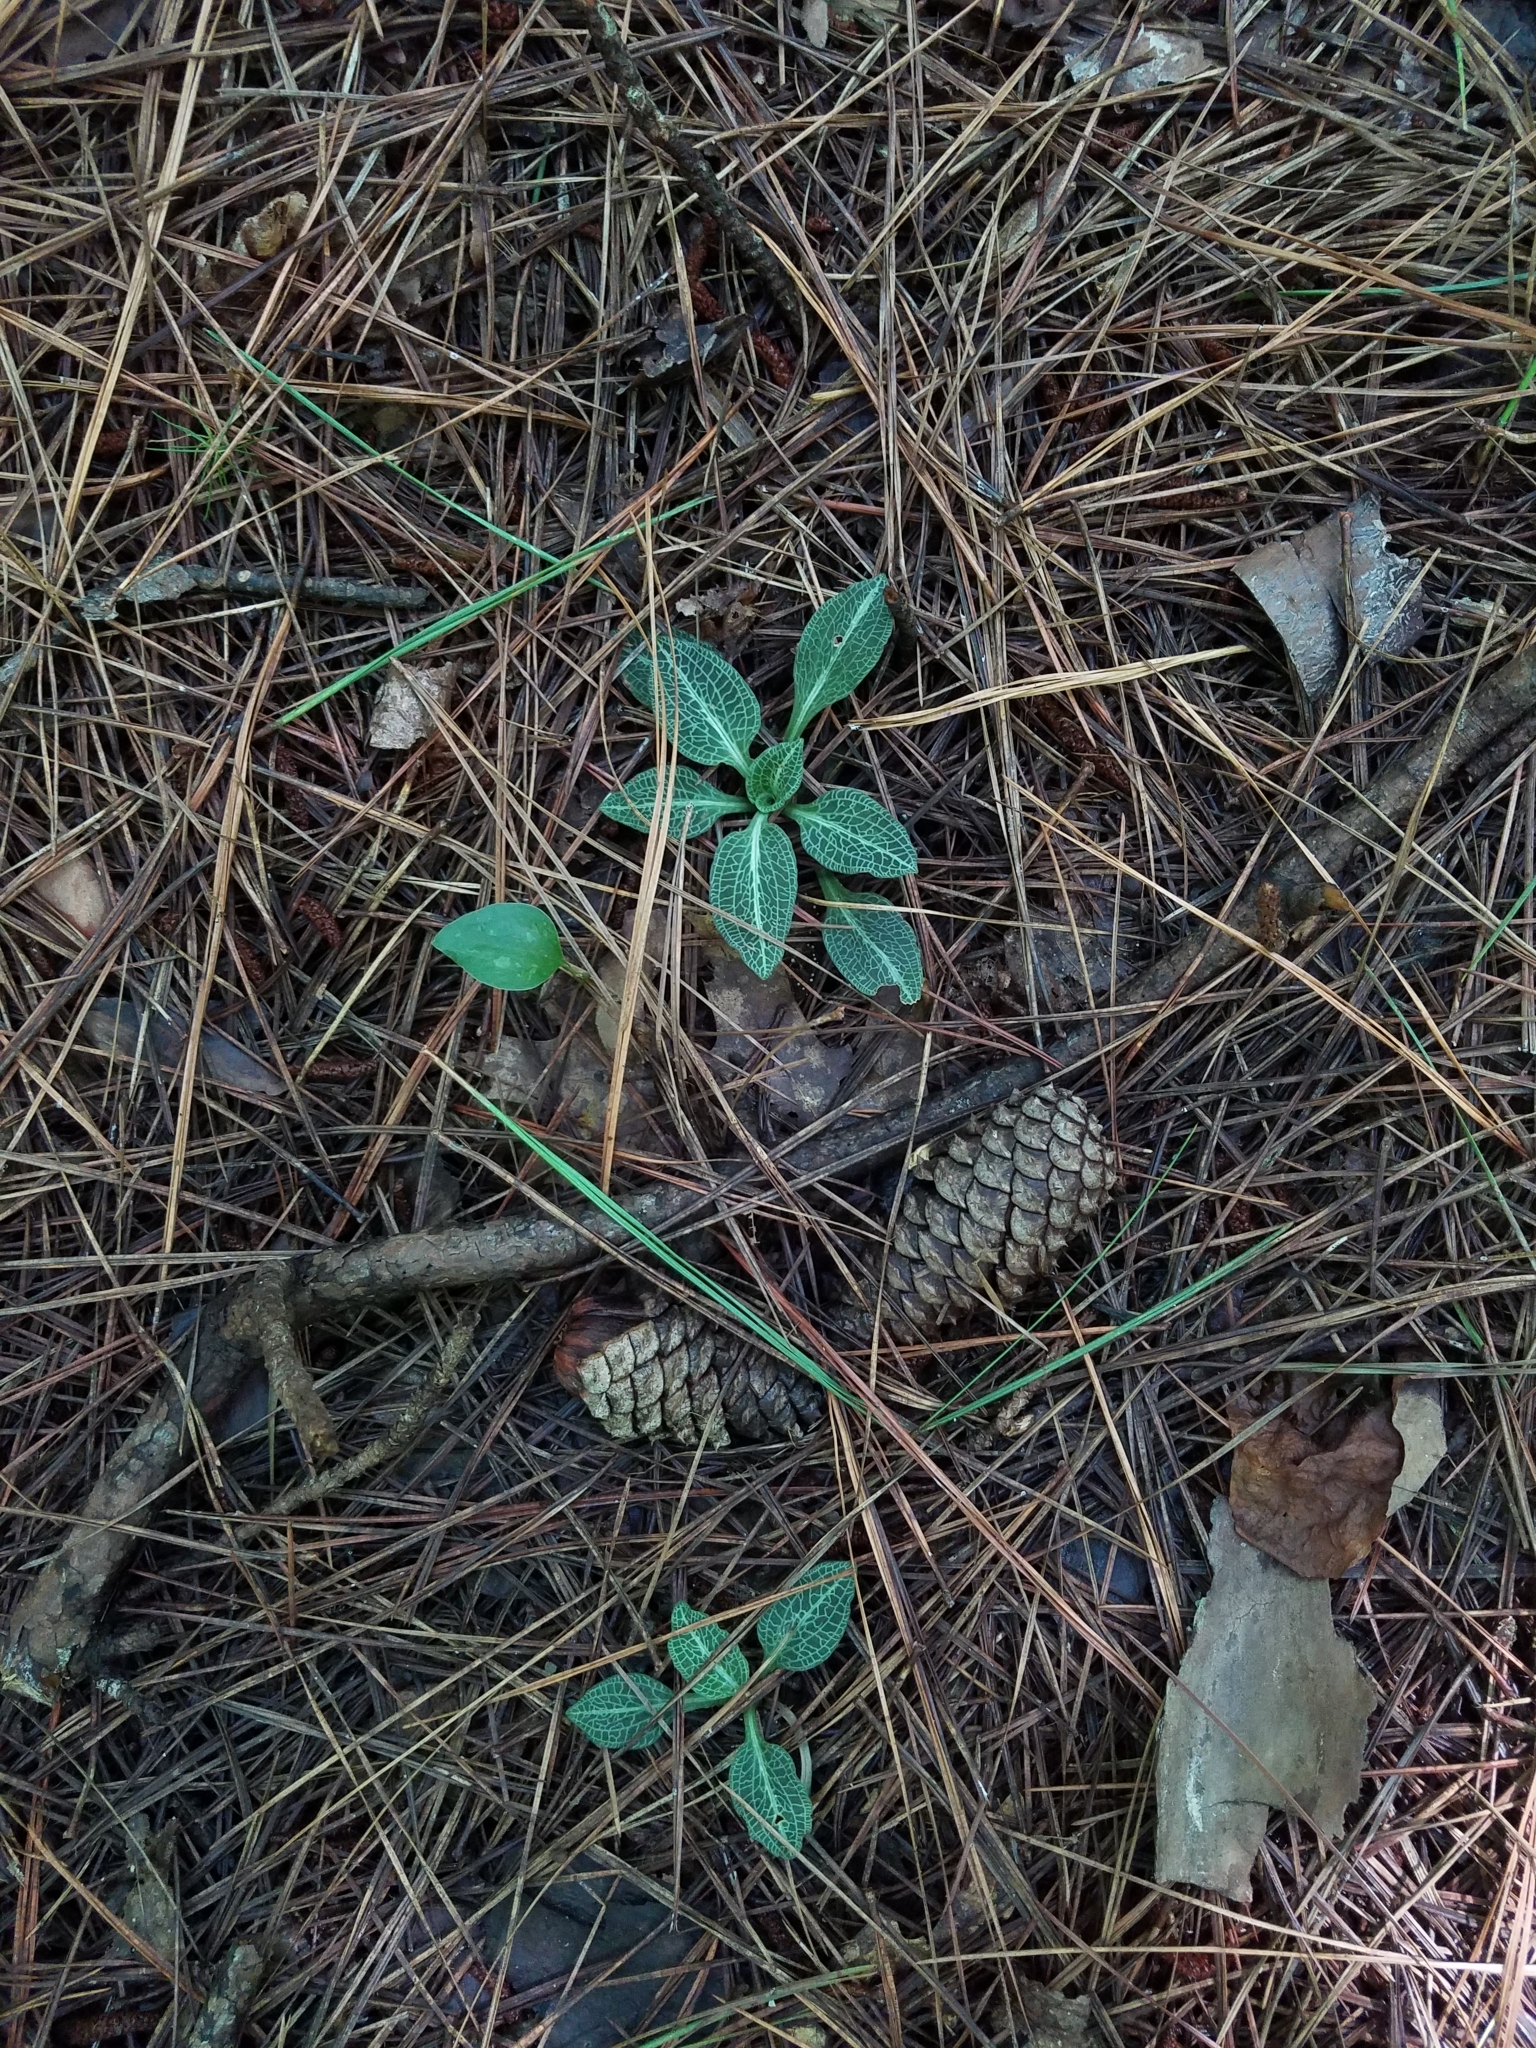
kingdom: Plantae
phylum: Tracheophyta
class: Liliopsida
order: Asparagales
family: Orchidaceae
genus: Goodyera
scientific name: Goodyera pubescens
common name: Downy rattlesnake-plantain
